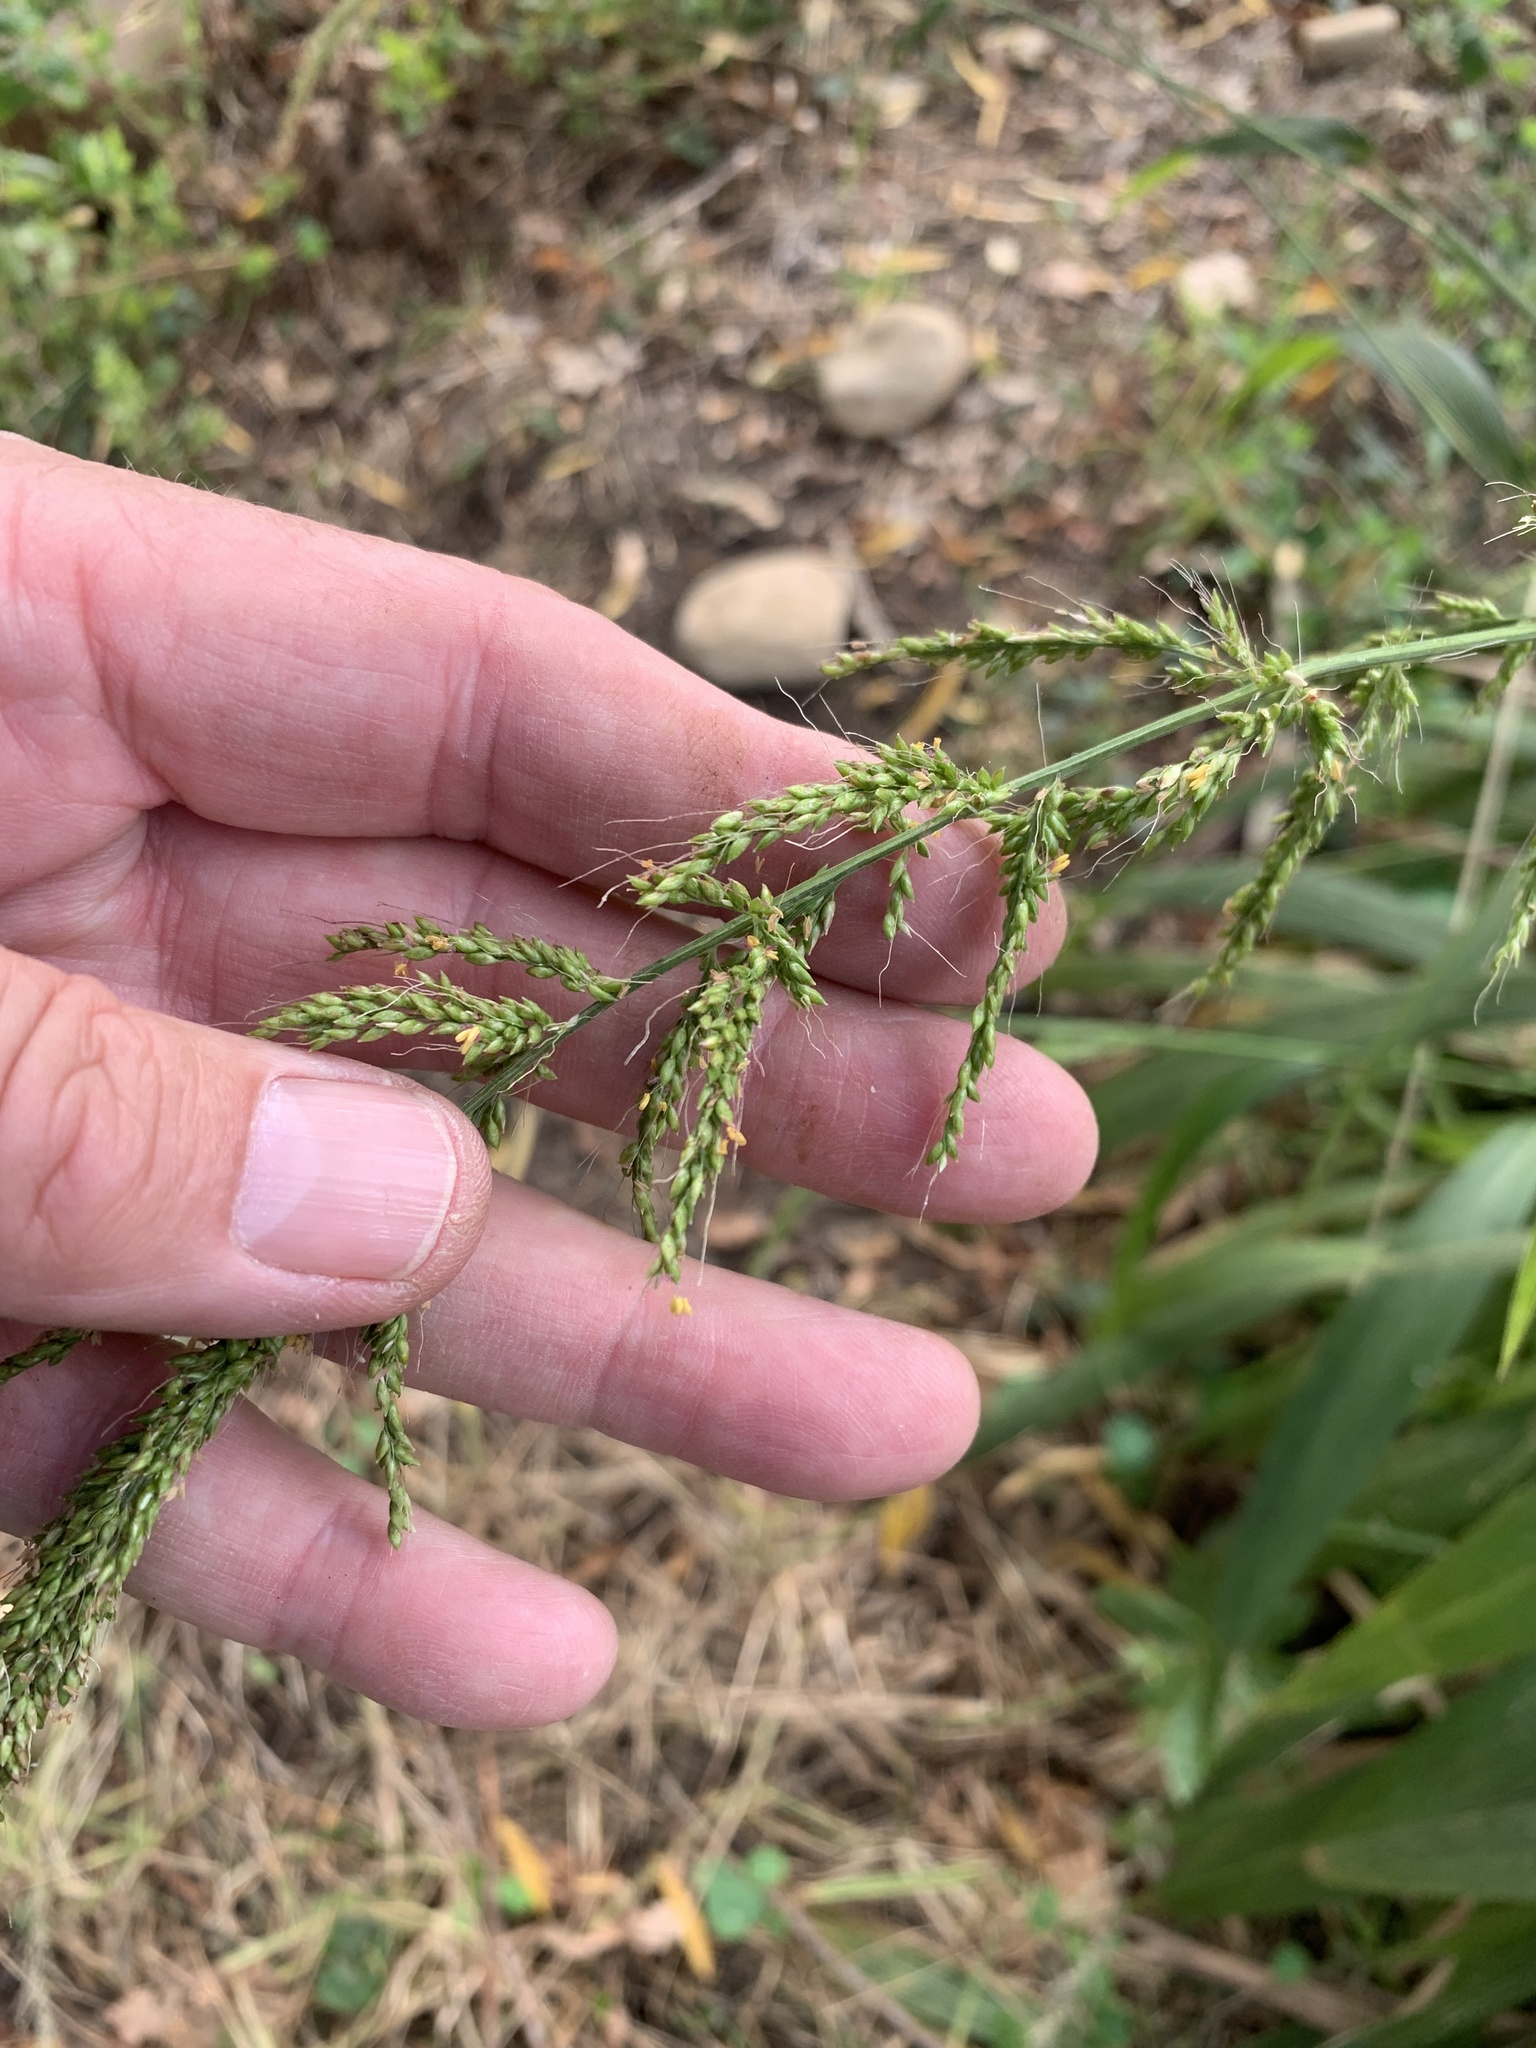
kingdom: Plantae
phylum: Tracheophyta
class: Liliopsida
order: Poales
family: Poaceae
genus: Setaria
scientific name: Setaria megaphylla
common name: Bigleaf bristlegrass
